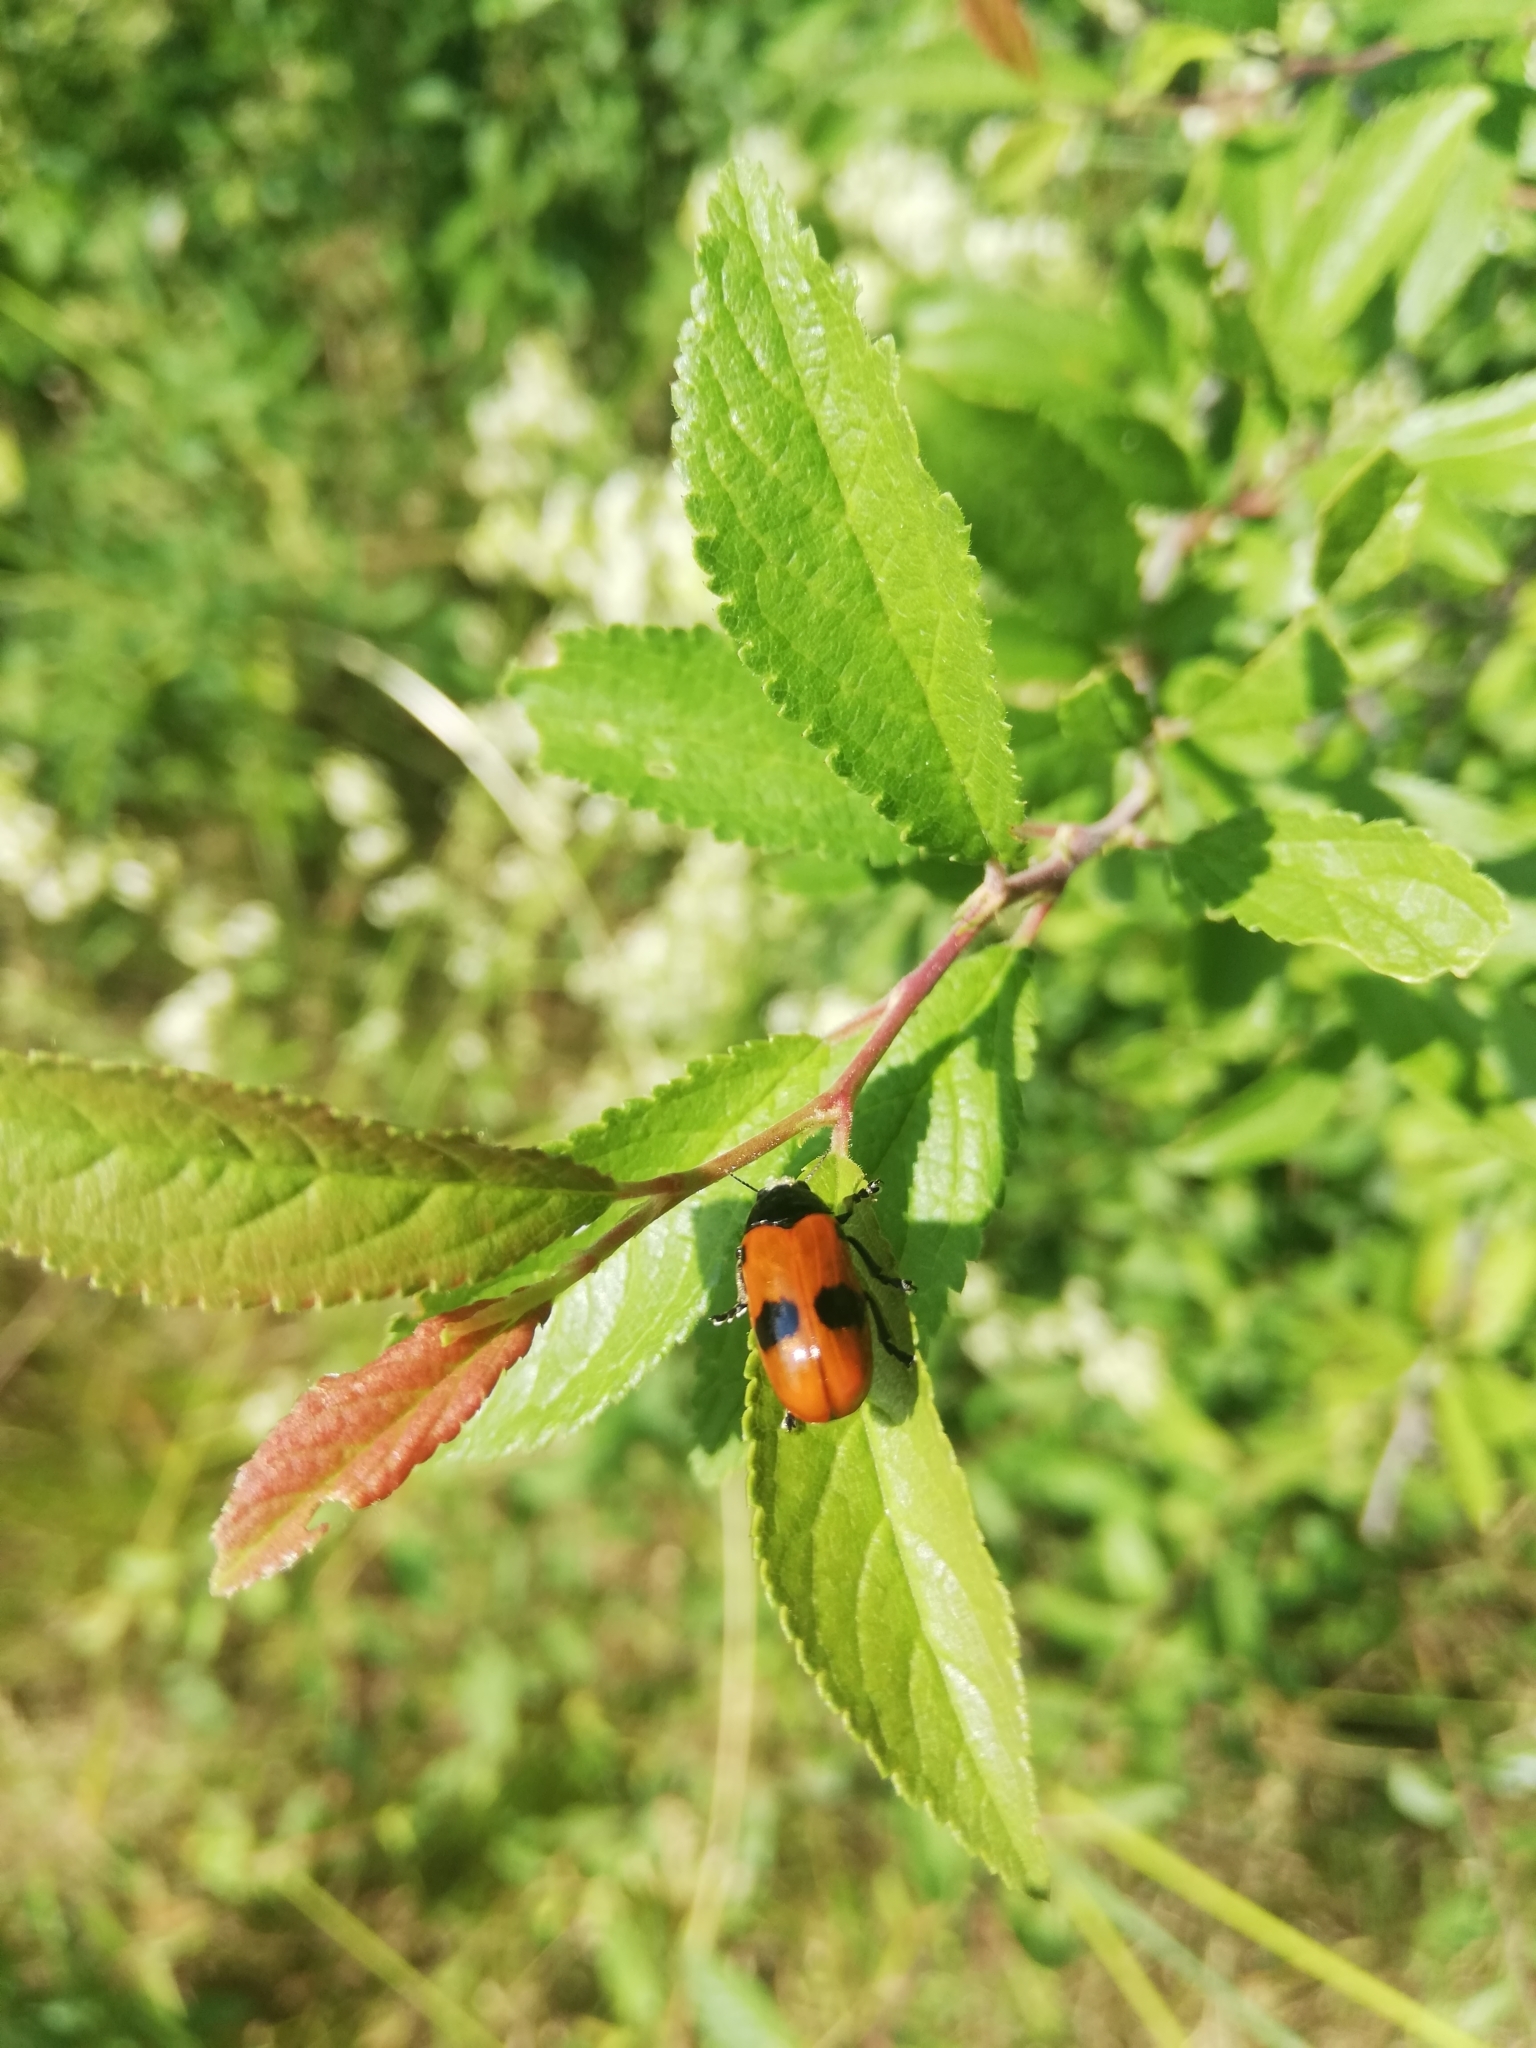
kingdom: Animalia
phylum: Arthropoda
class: Insecta
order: Coleoptera
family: Chrysomelidae
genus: Clytra
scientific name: Clytra laeviuscula
